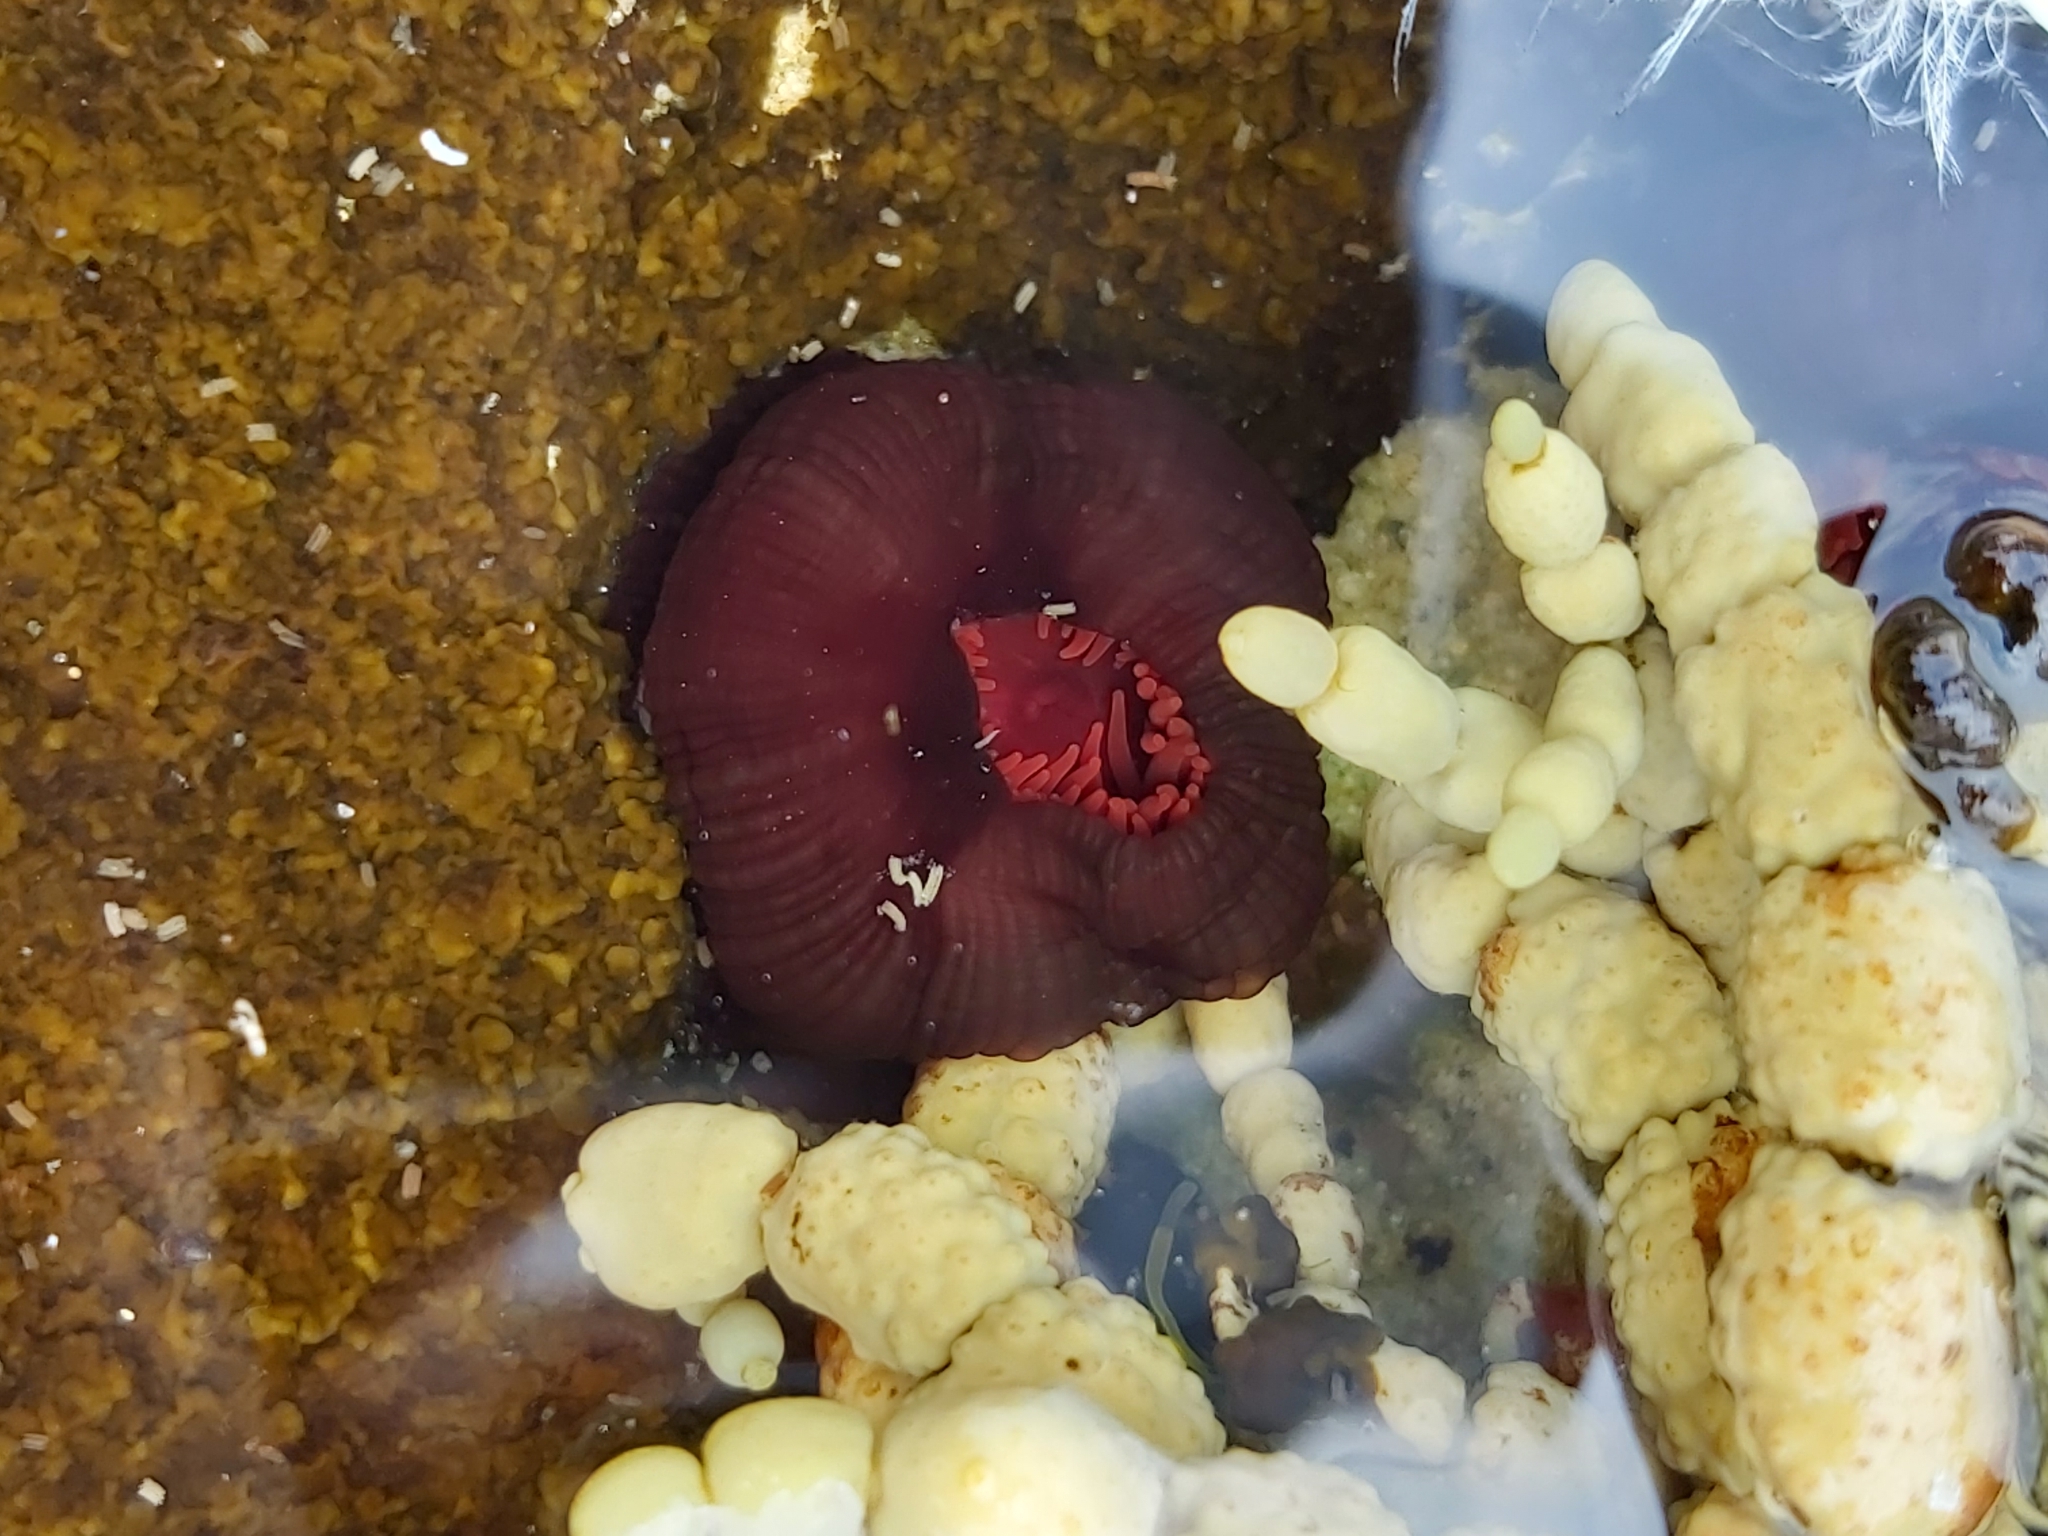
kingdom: Animalia
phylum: Cnidaria
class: Anthozoa
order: Actiniaria
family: Actiniidae
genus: Actinia
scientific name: Actinia tenebrosa
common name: Waratah anemone
